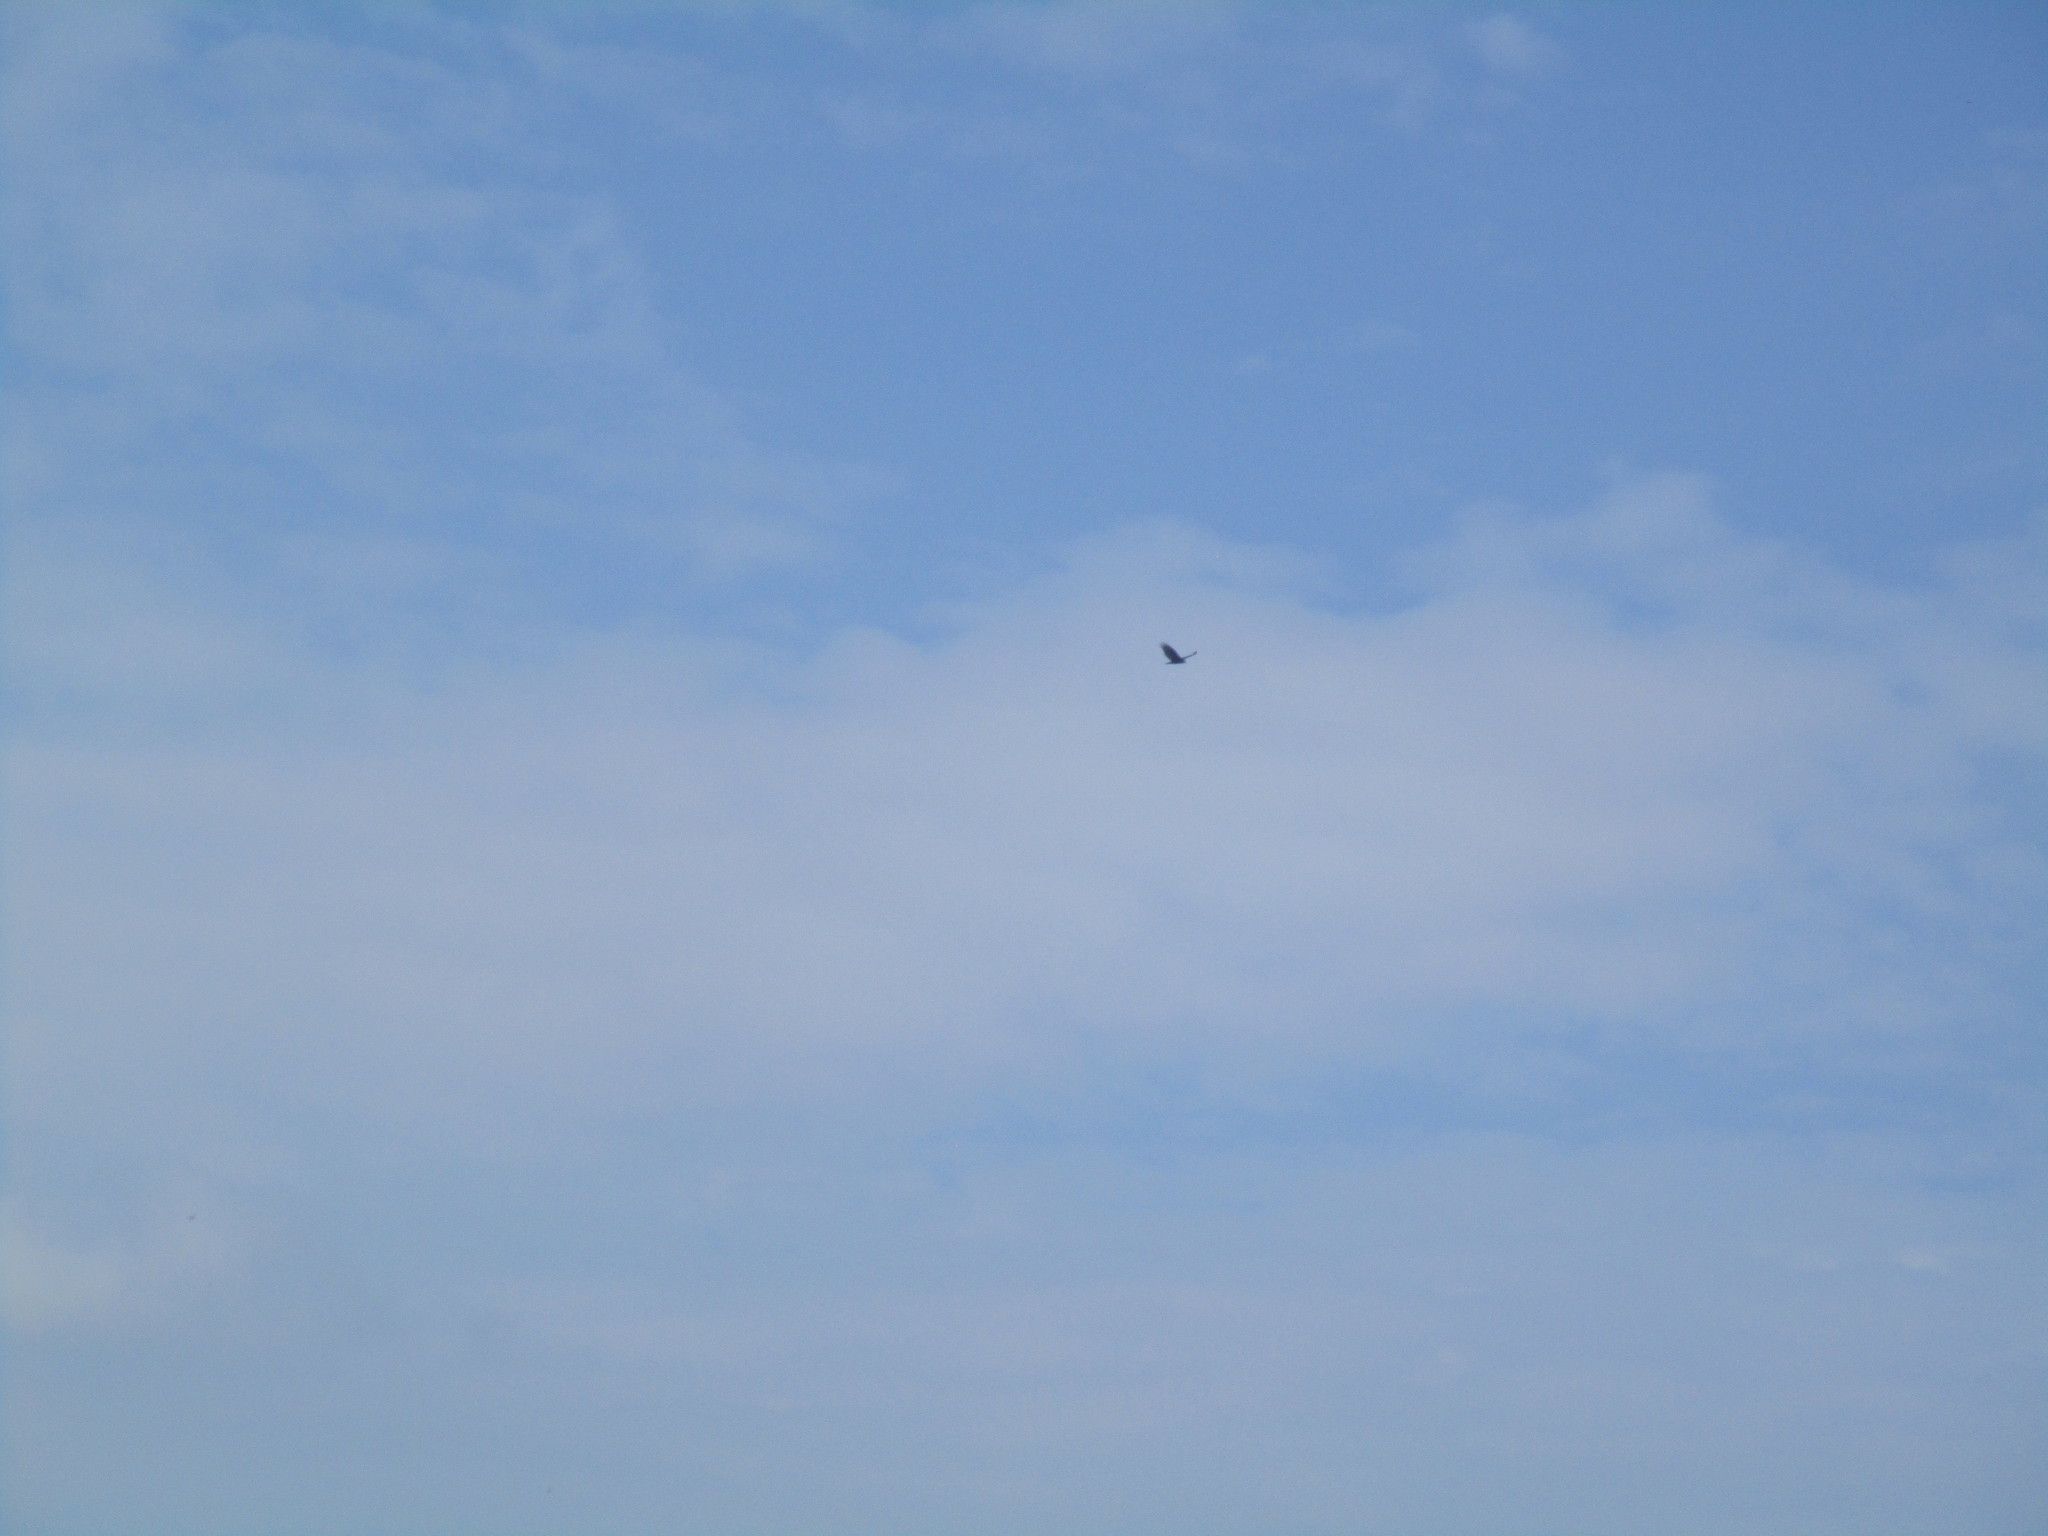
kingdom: Animalia
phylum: Chordata
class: Aves
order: Accipitriformes
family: Cathartidae
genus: Cathartes
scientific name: Cathartes aura
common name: Turkey vulture
